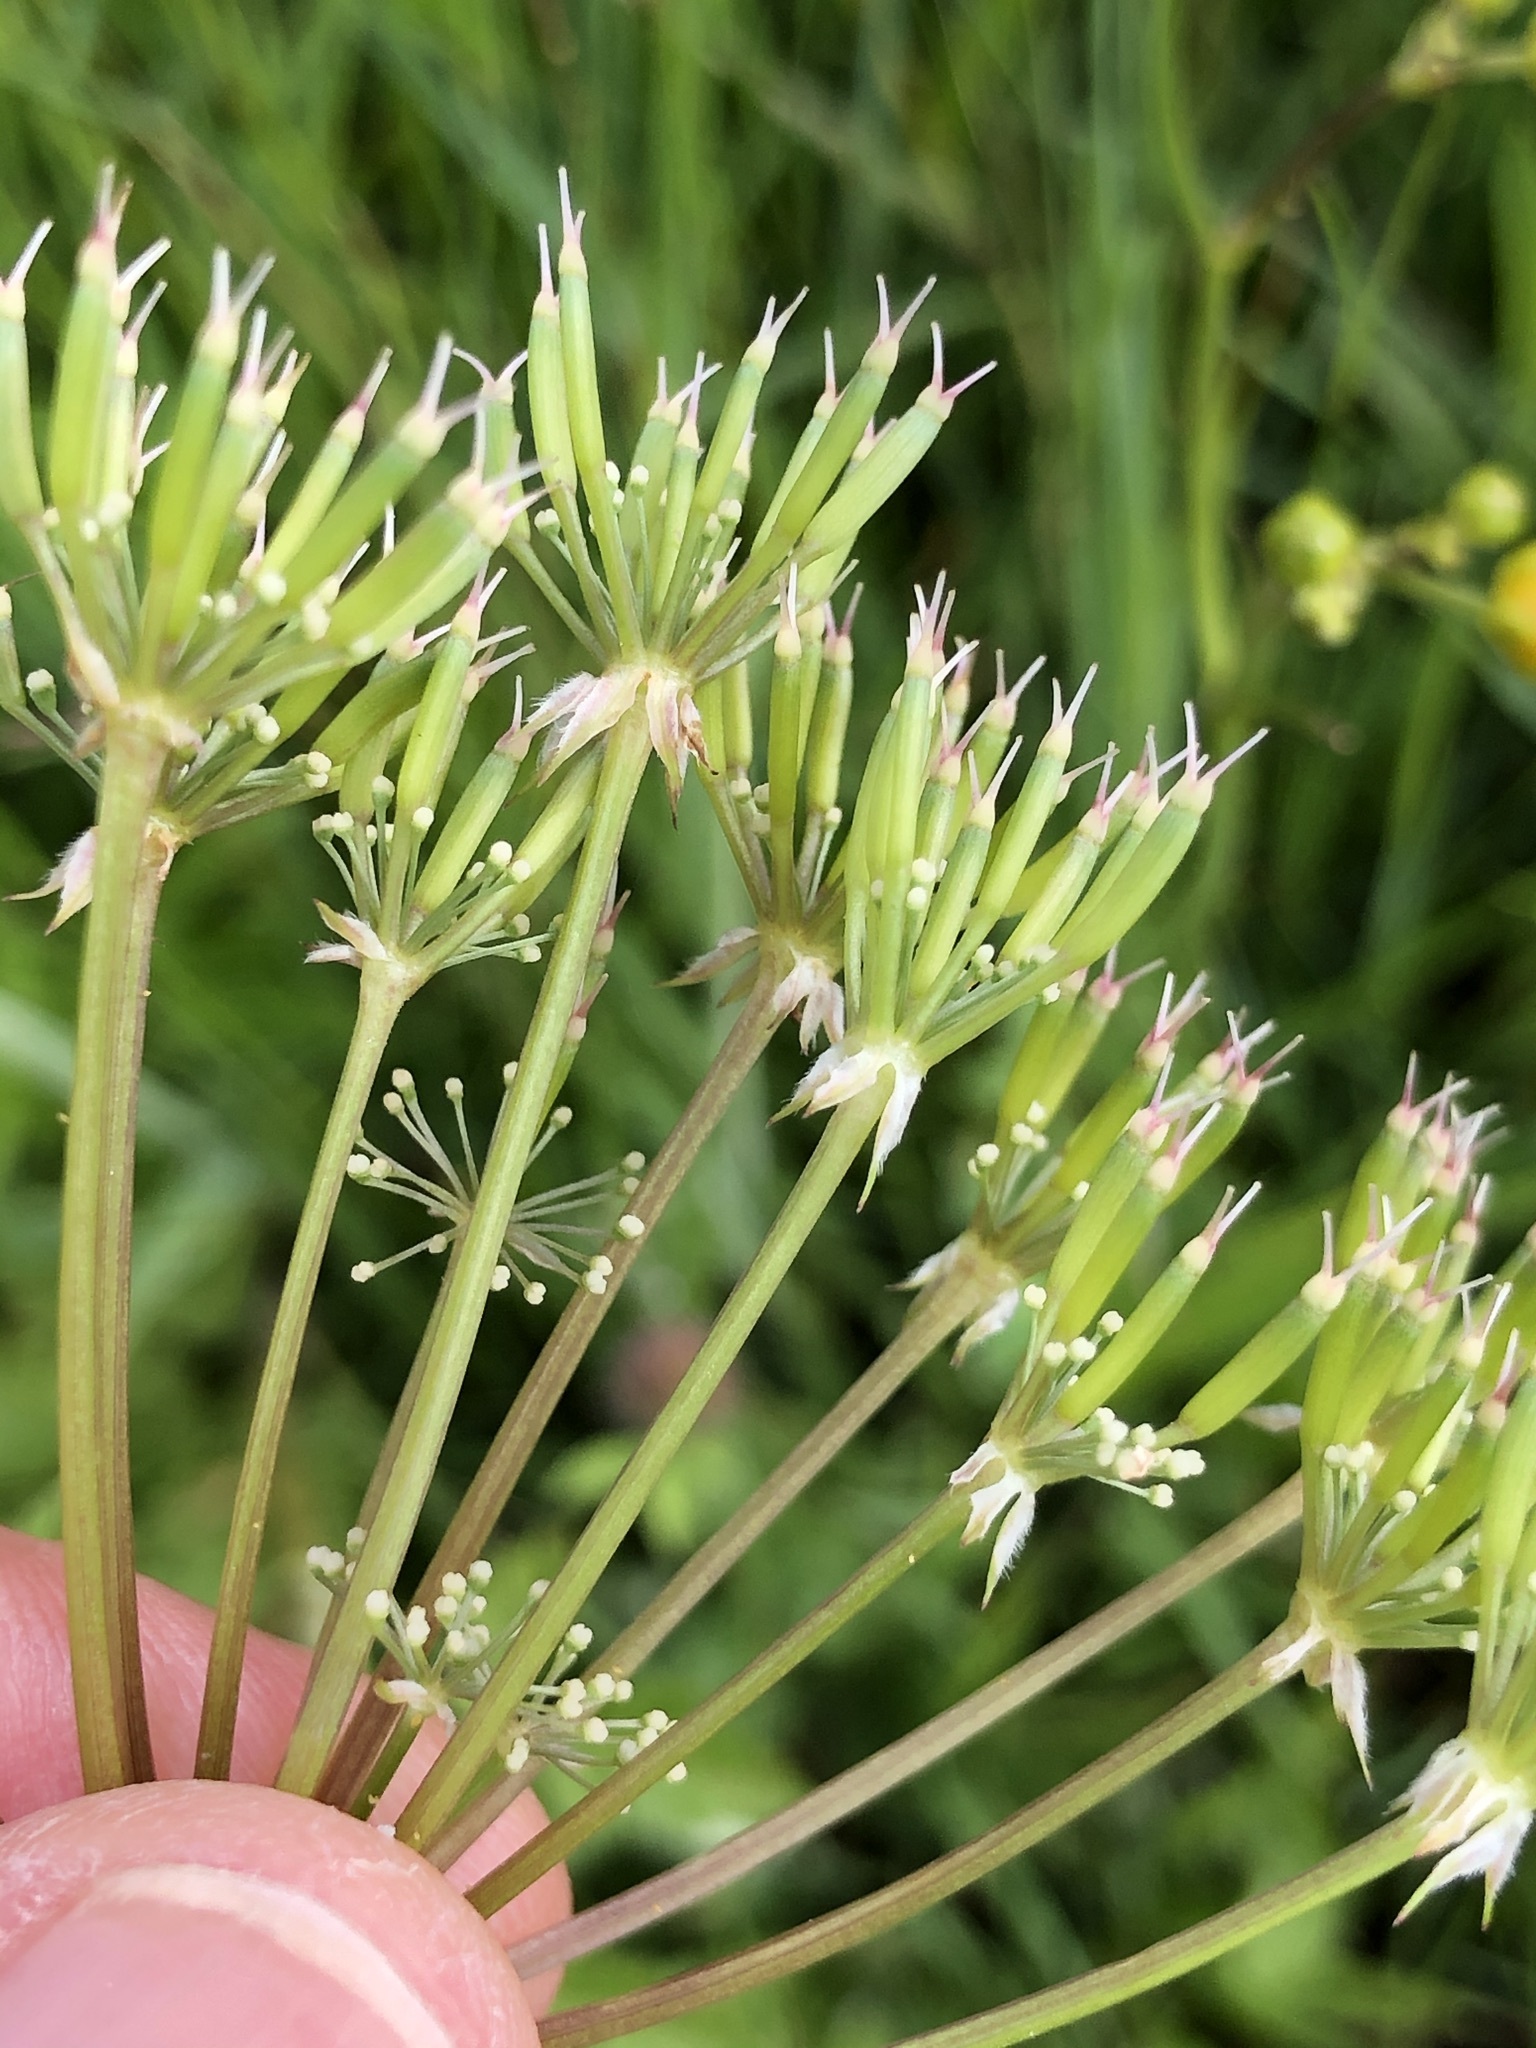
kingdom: Plantae
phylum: Tracheophyta
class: Magnoliopsida
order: Apiales
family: Apiaceae
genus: Anthriscus
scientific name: Anthriscus sylvestris
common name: Cow parsley
